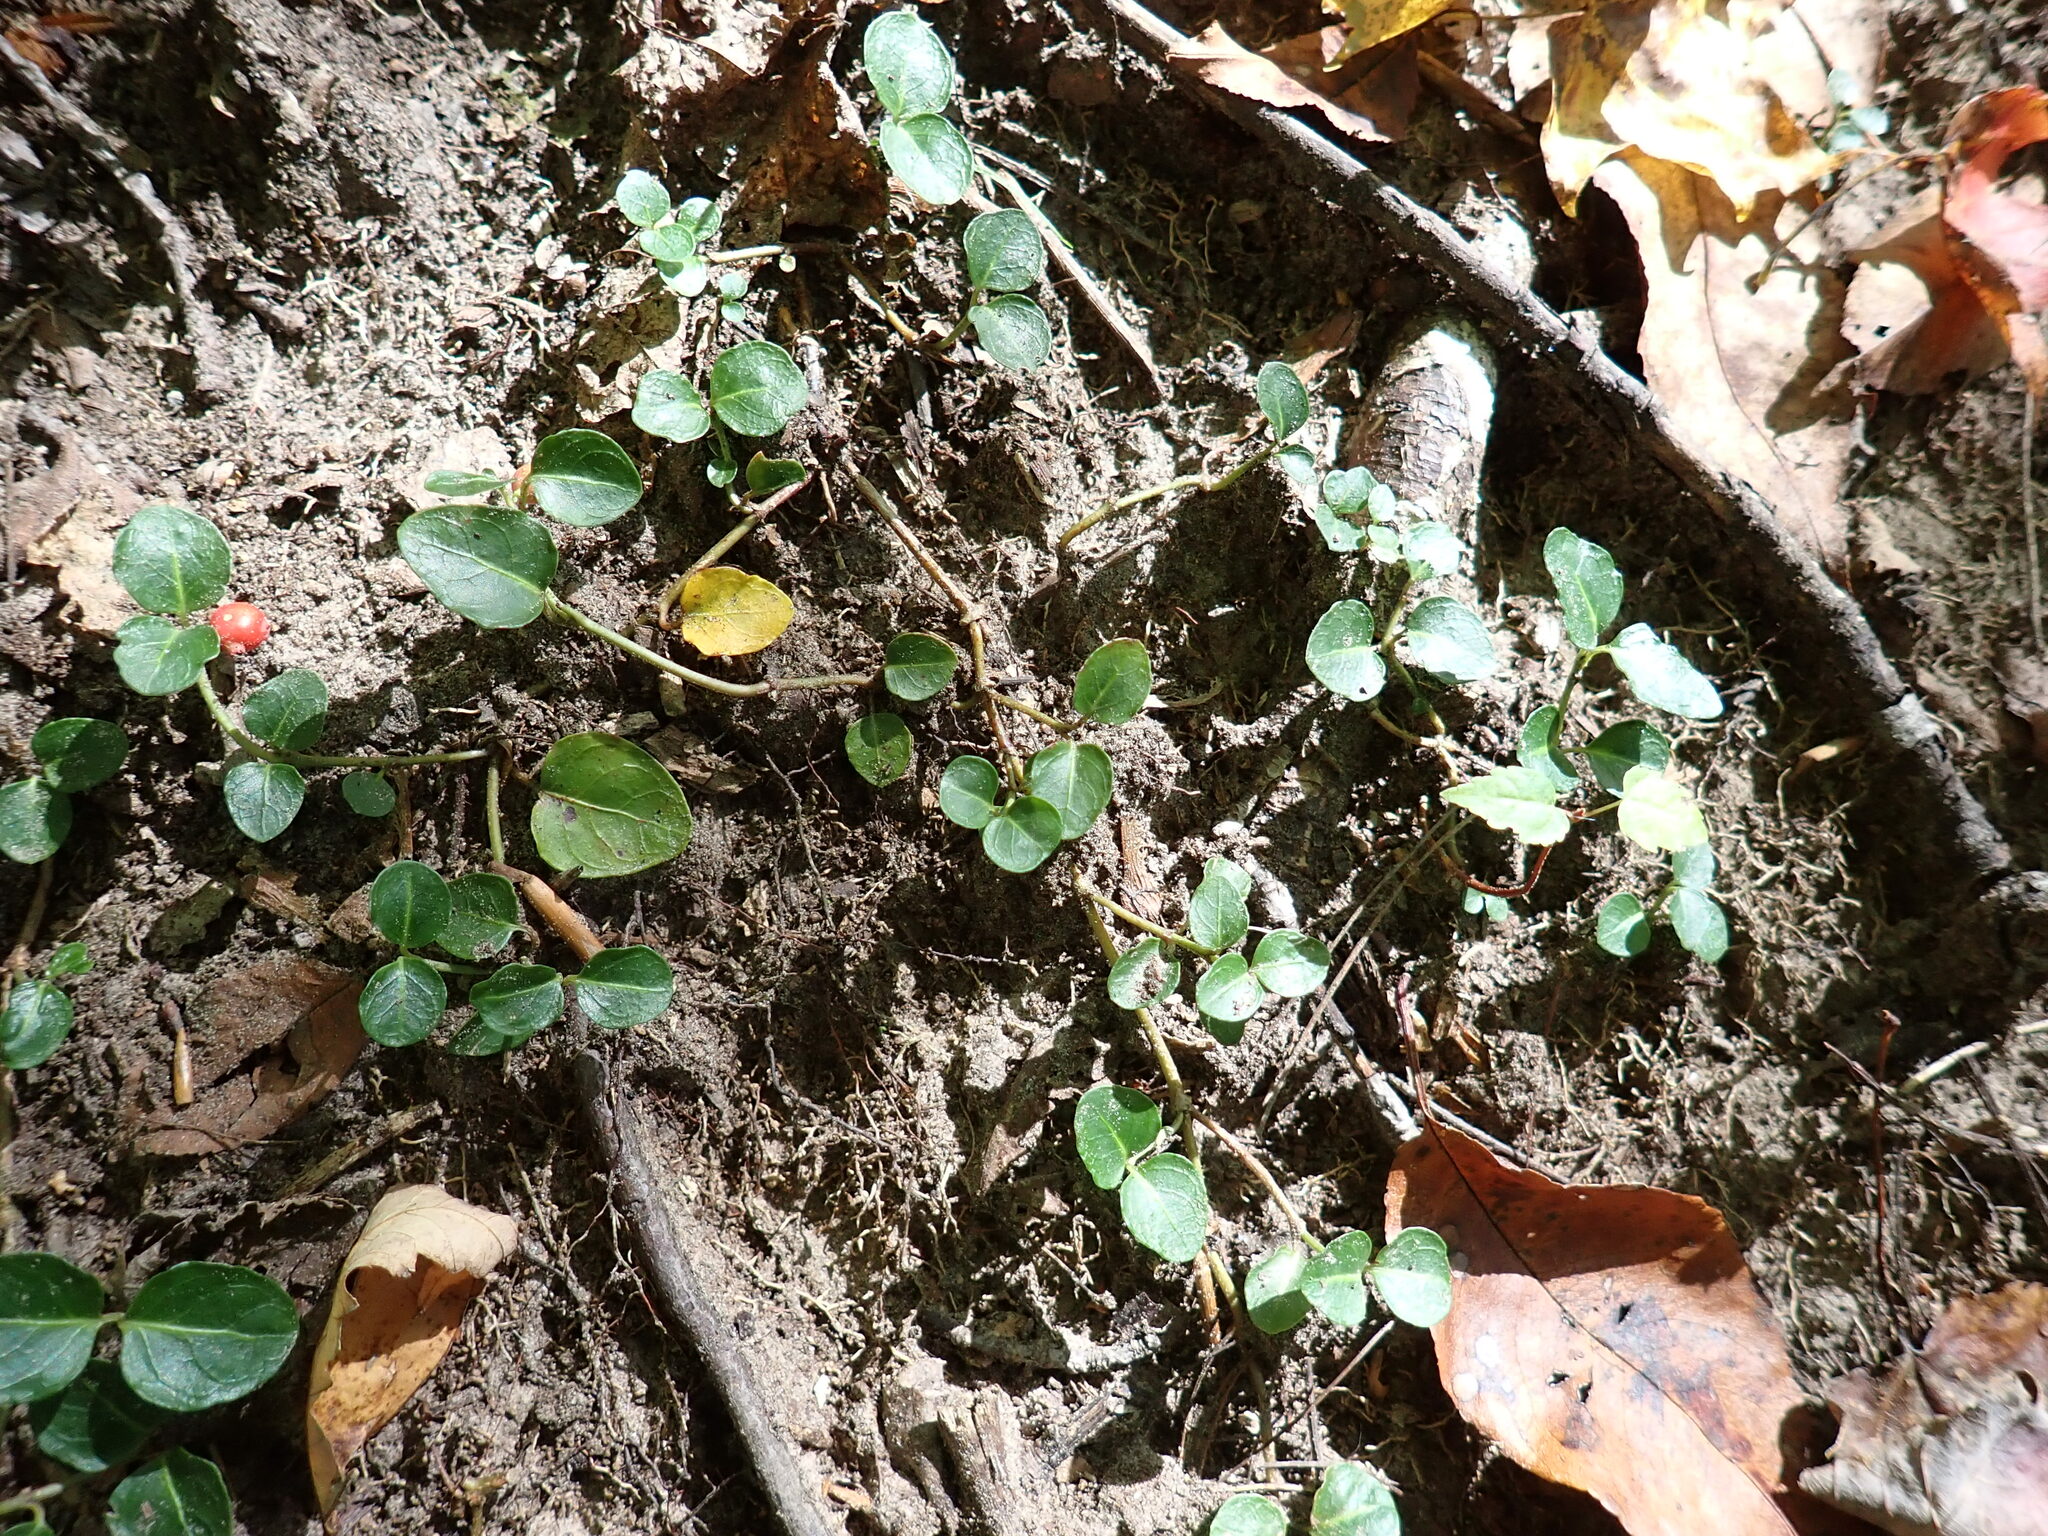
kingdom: Plantae
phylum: Tracheophyta
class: Magnoliopsida
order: Gentianales
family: Rubiaceae
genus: Mitchella
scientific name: Mitchella repens
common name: Partridge-berry
